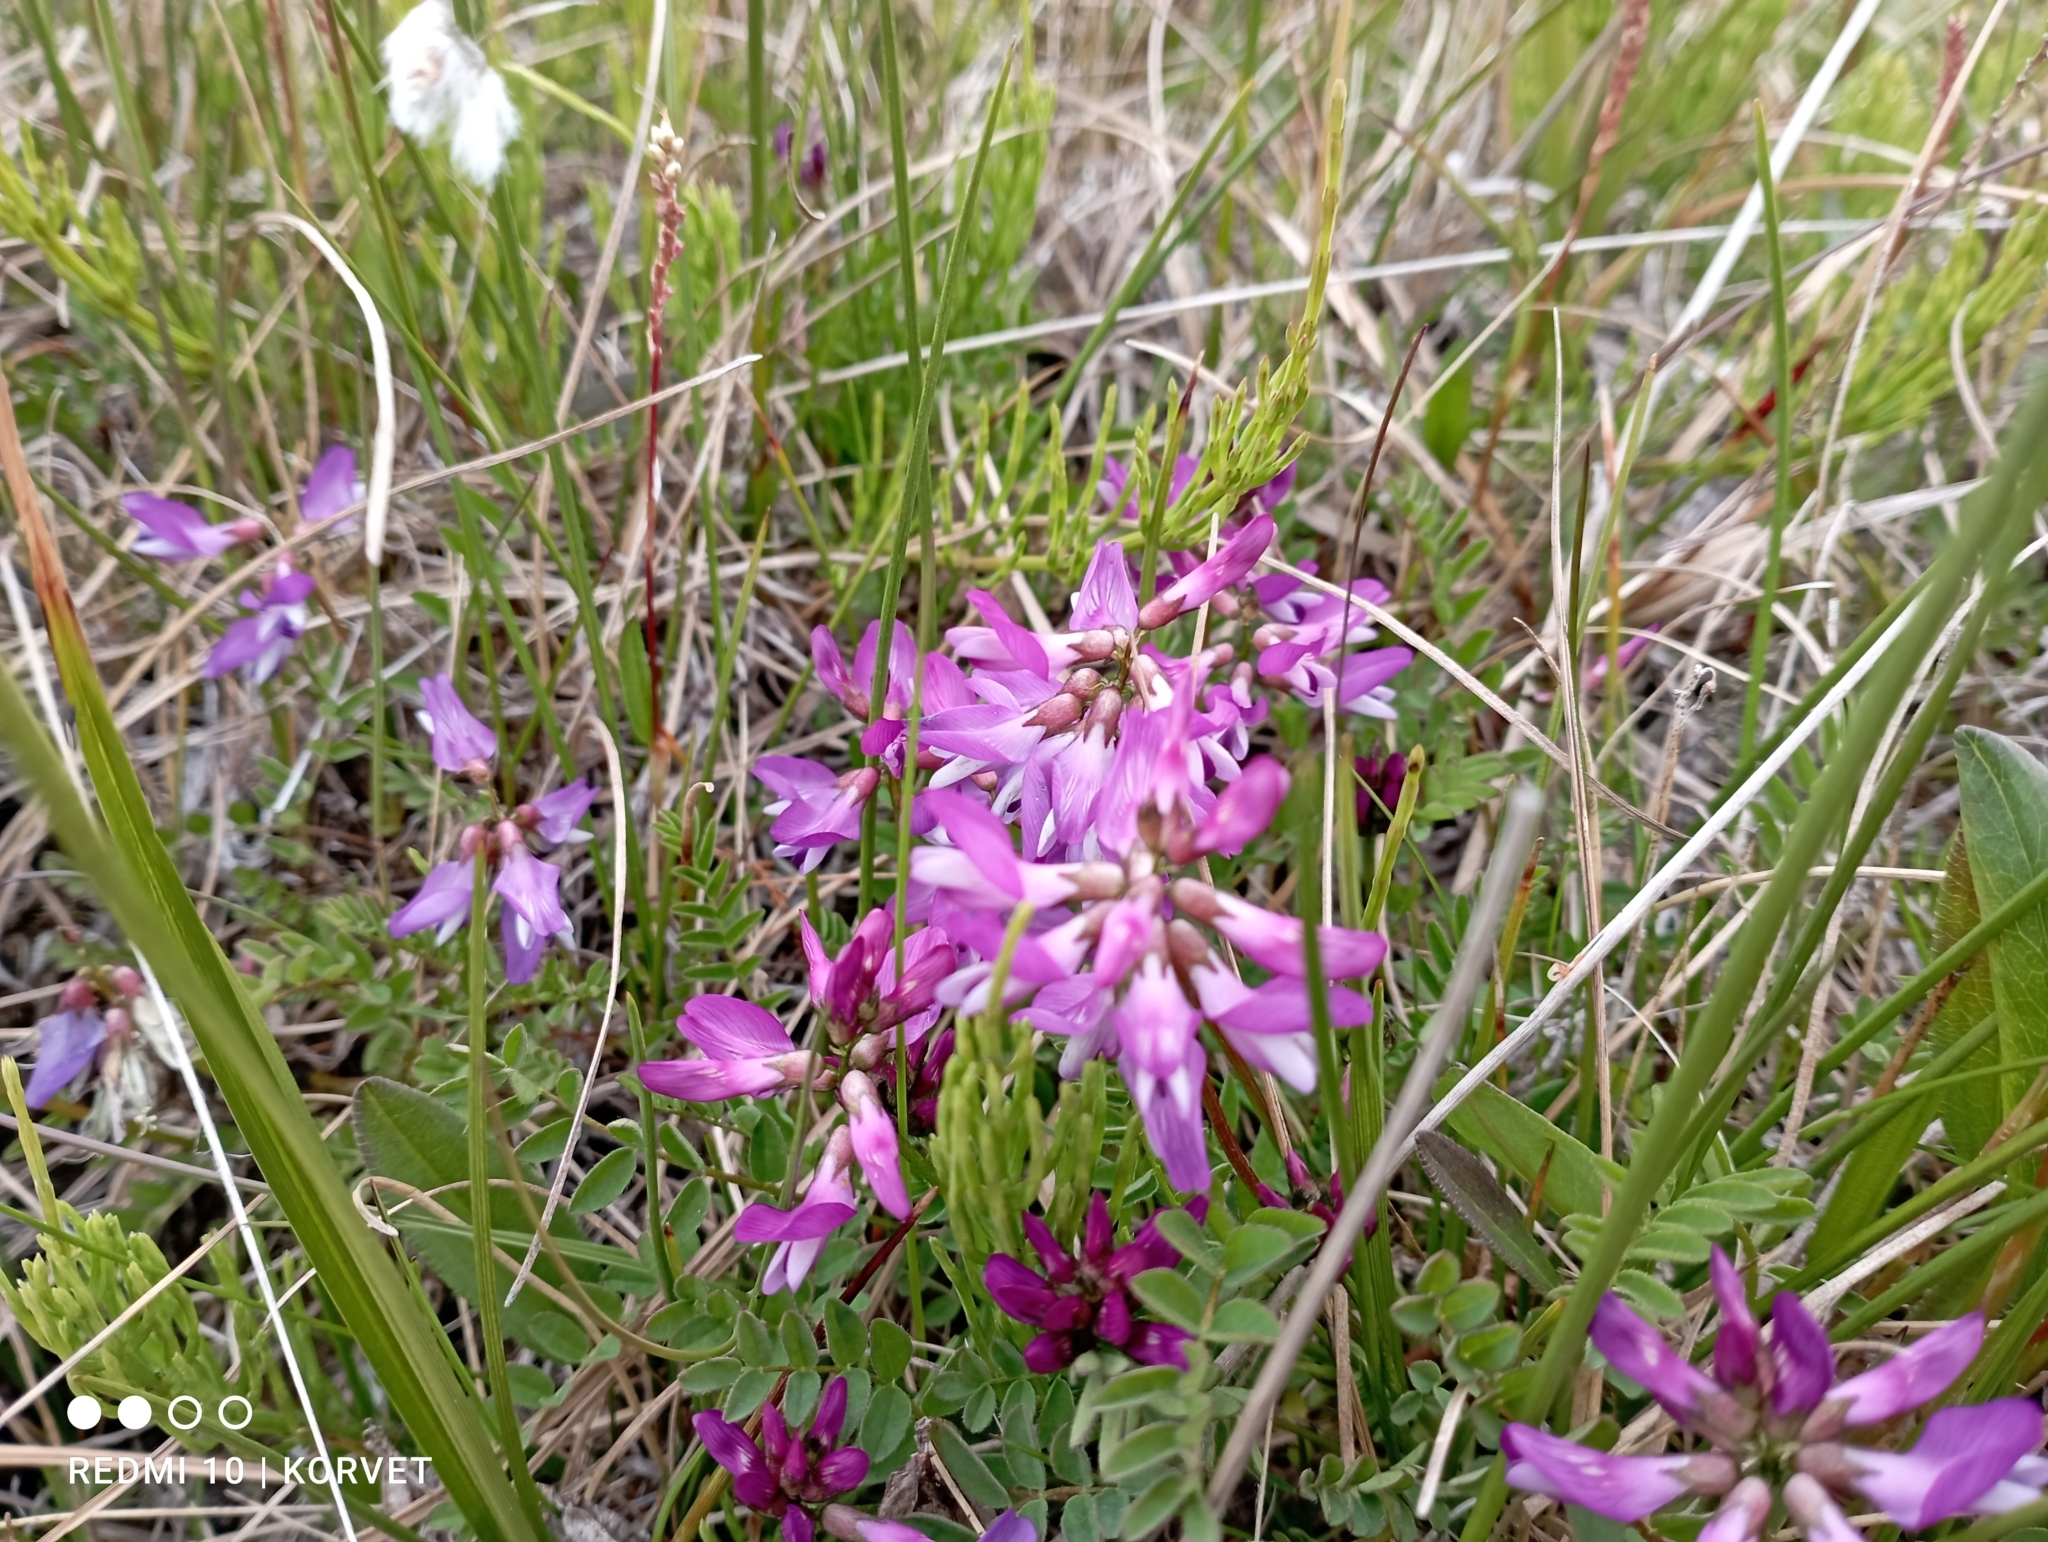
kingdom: Plantae
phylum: Tracheophyta
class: Magnoliopsida
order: Fabales
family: Fabaceae
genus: Astragalus
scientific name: Astragalus alpinus
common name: Alpine milk-vetch
